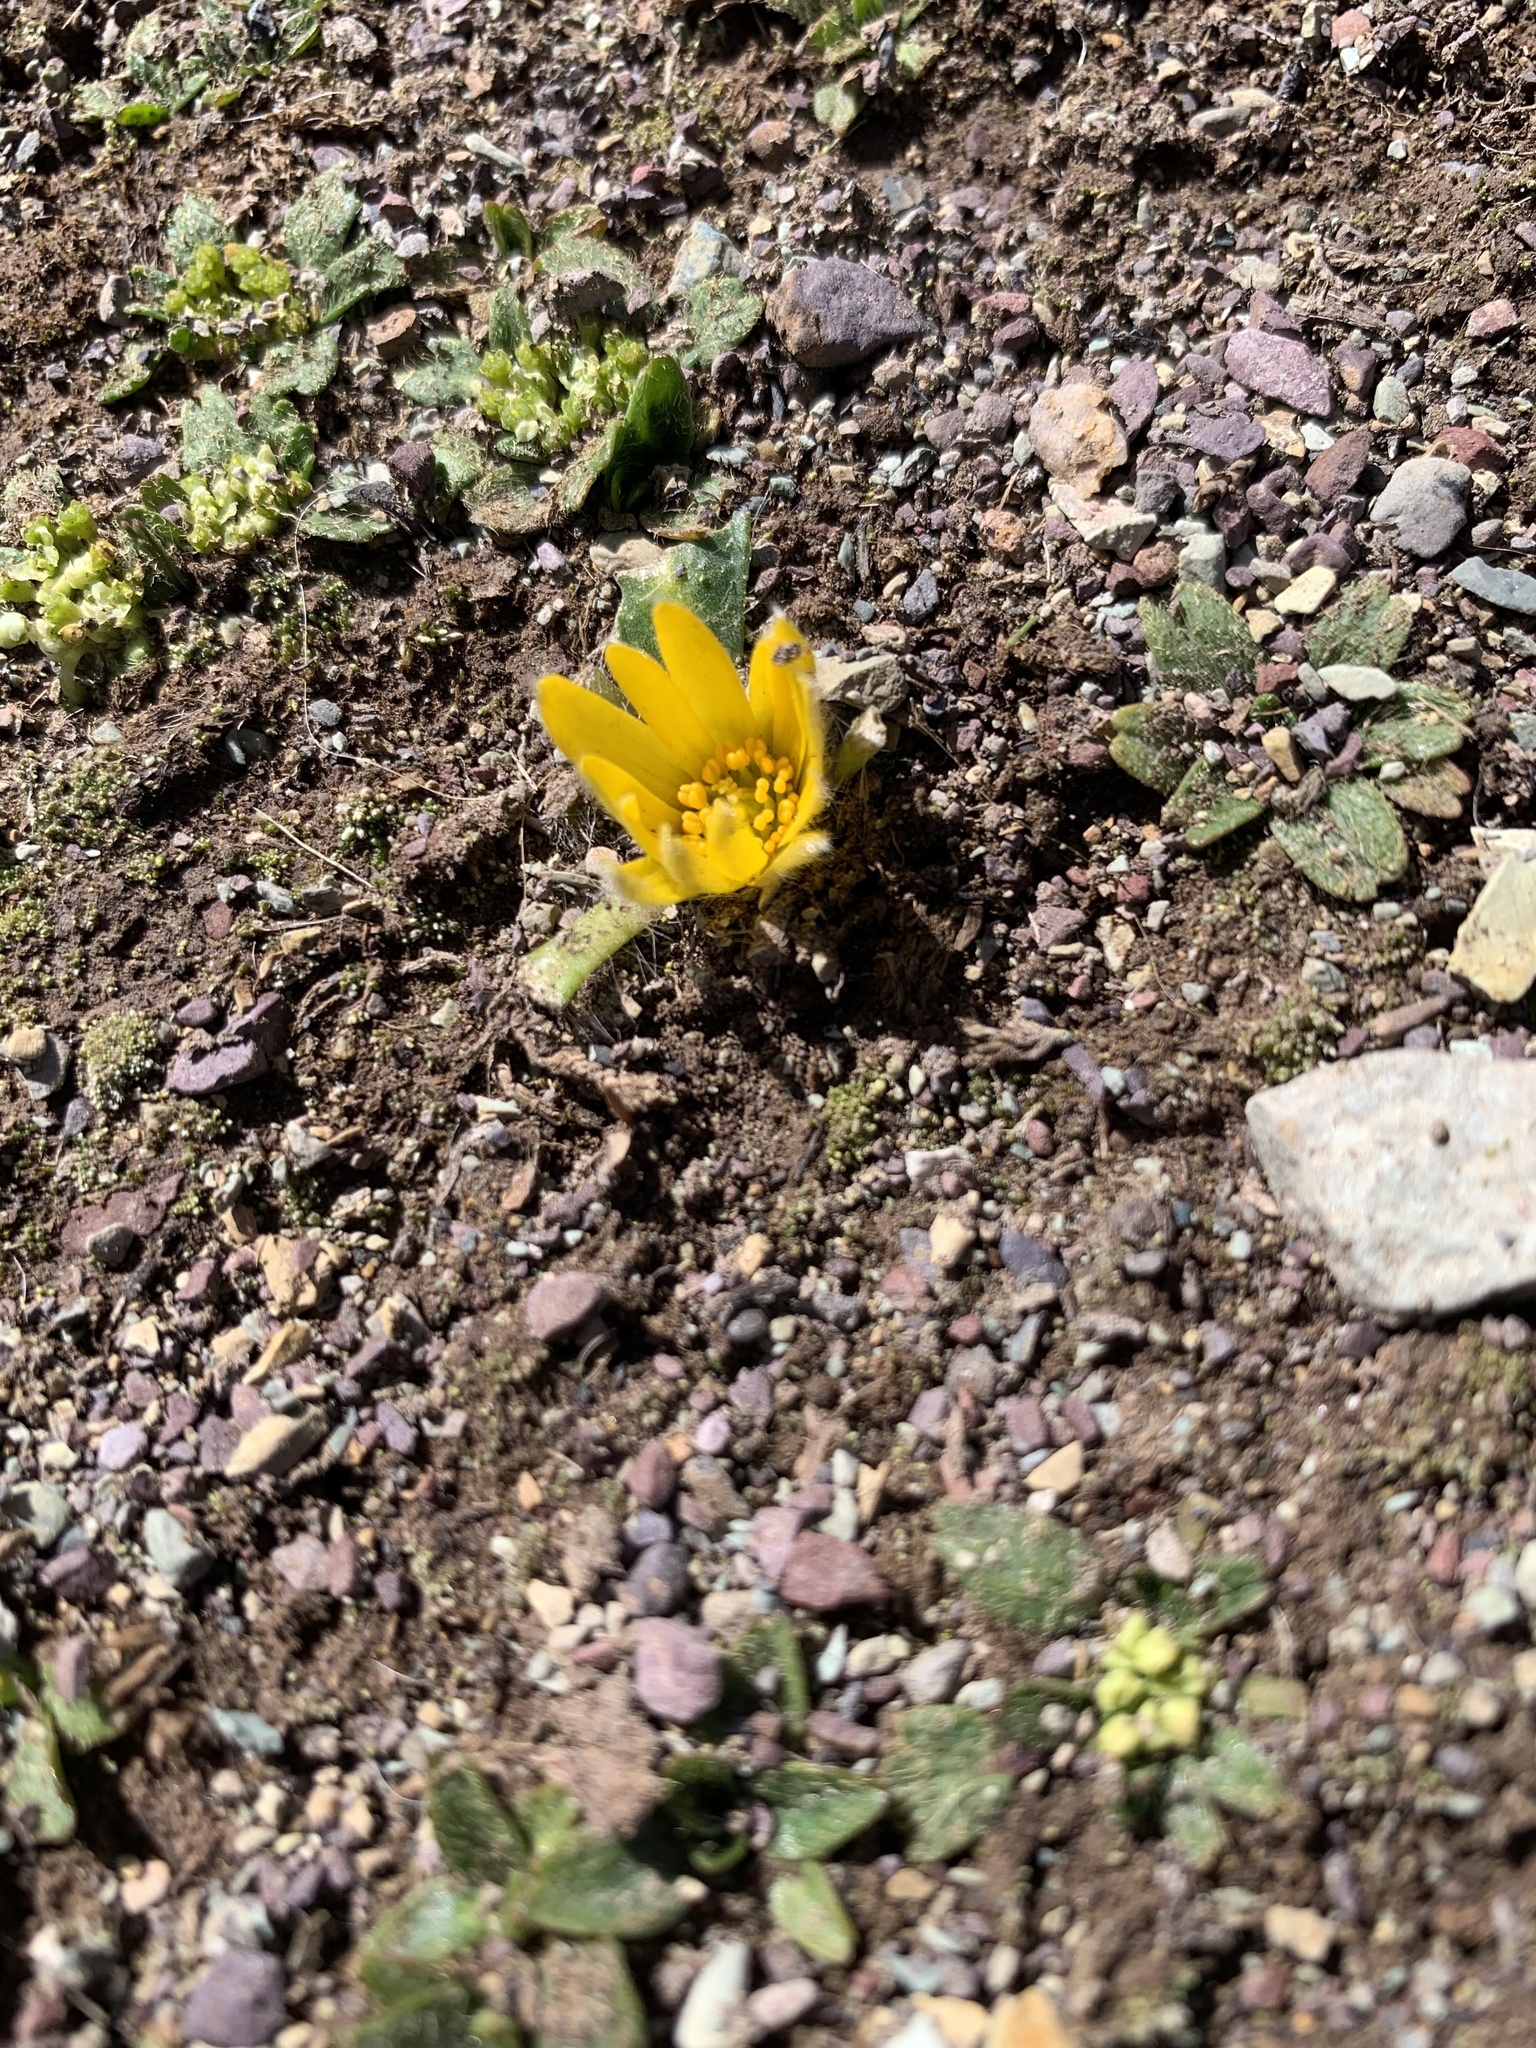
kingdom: Plantae
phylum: Tracheophyta
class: Magnoliopsida
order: Ranunculales
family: Ranunculaceae
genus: Knowltonia
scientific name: Knowltonia integrifolia
